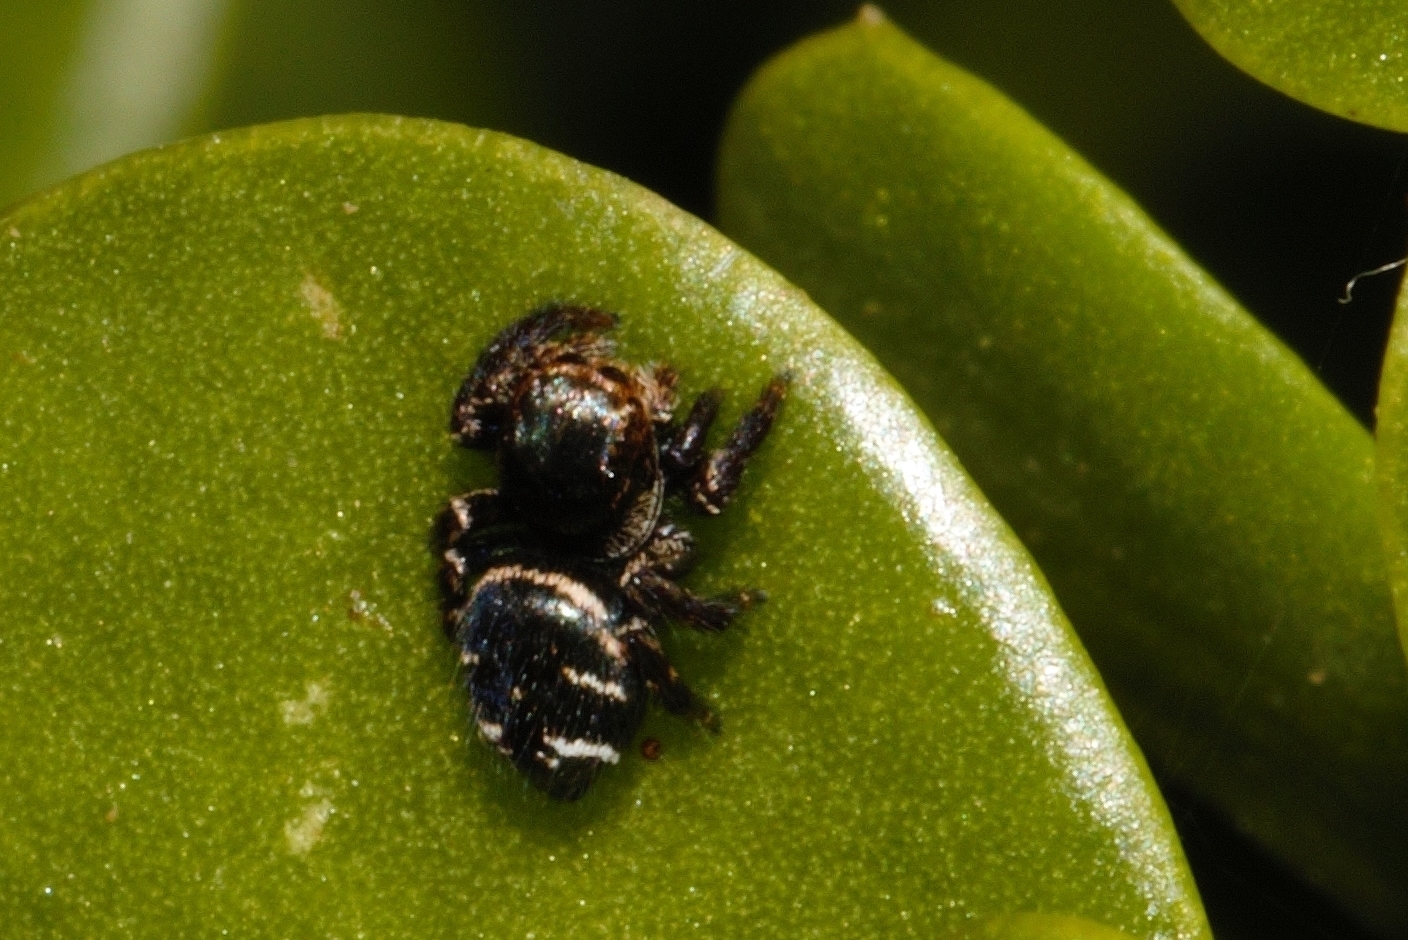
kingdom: Animalia
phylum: Arthropoda
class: Arachnida
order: Araneae
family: Salticidae
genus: Baryphas
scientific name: Baryphas ahenus
